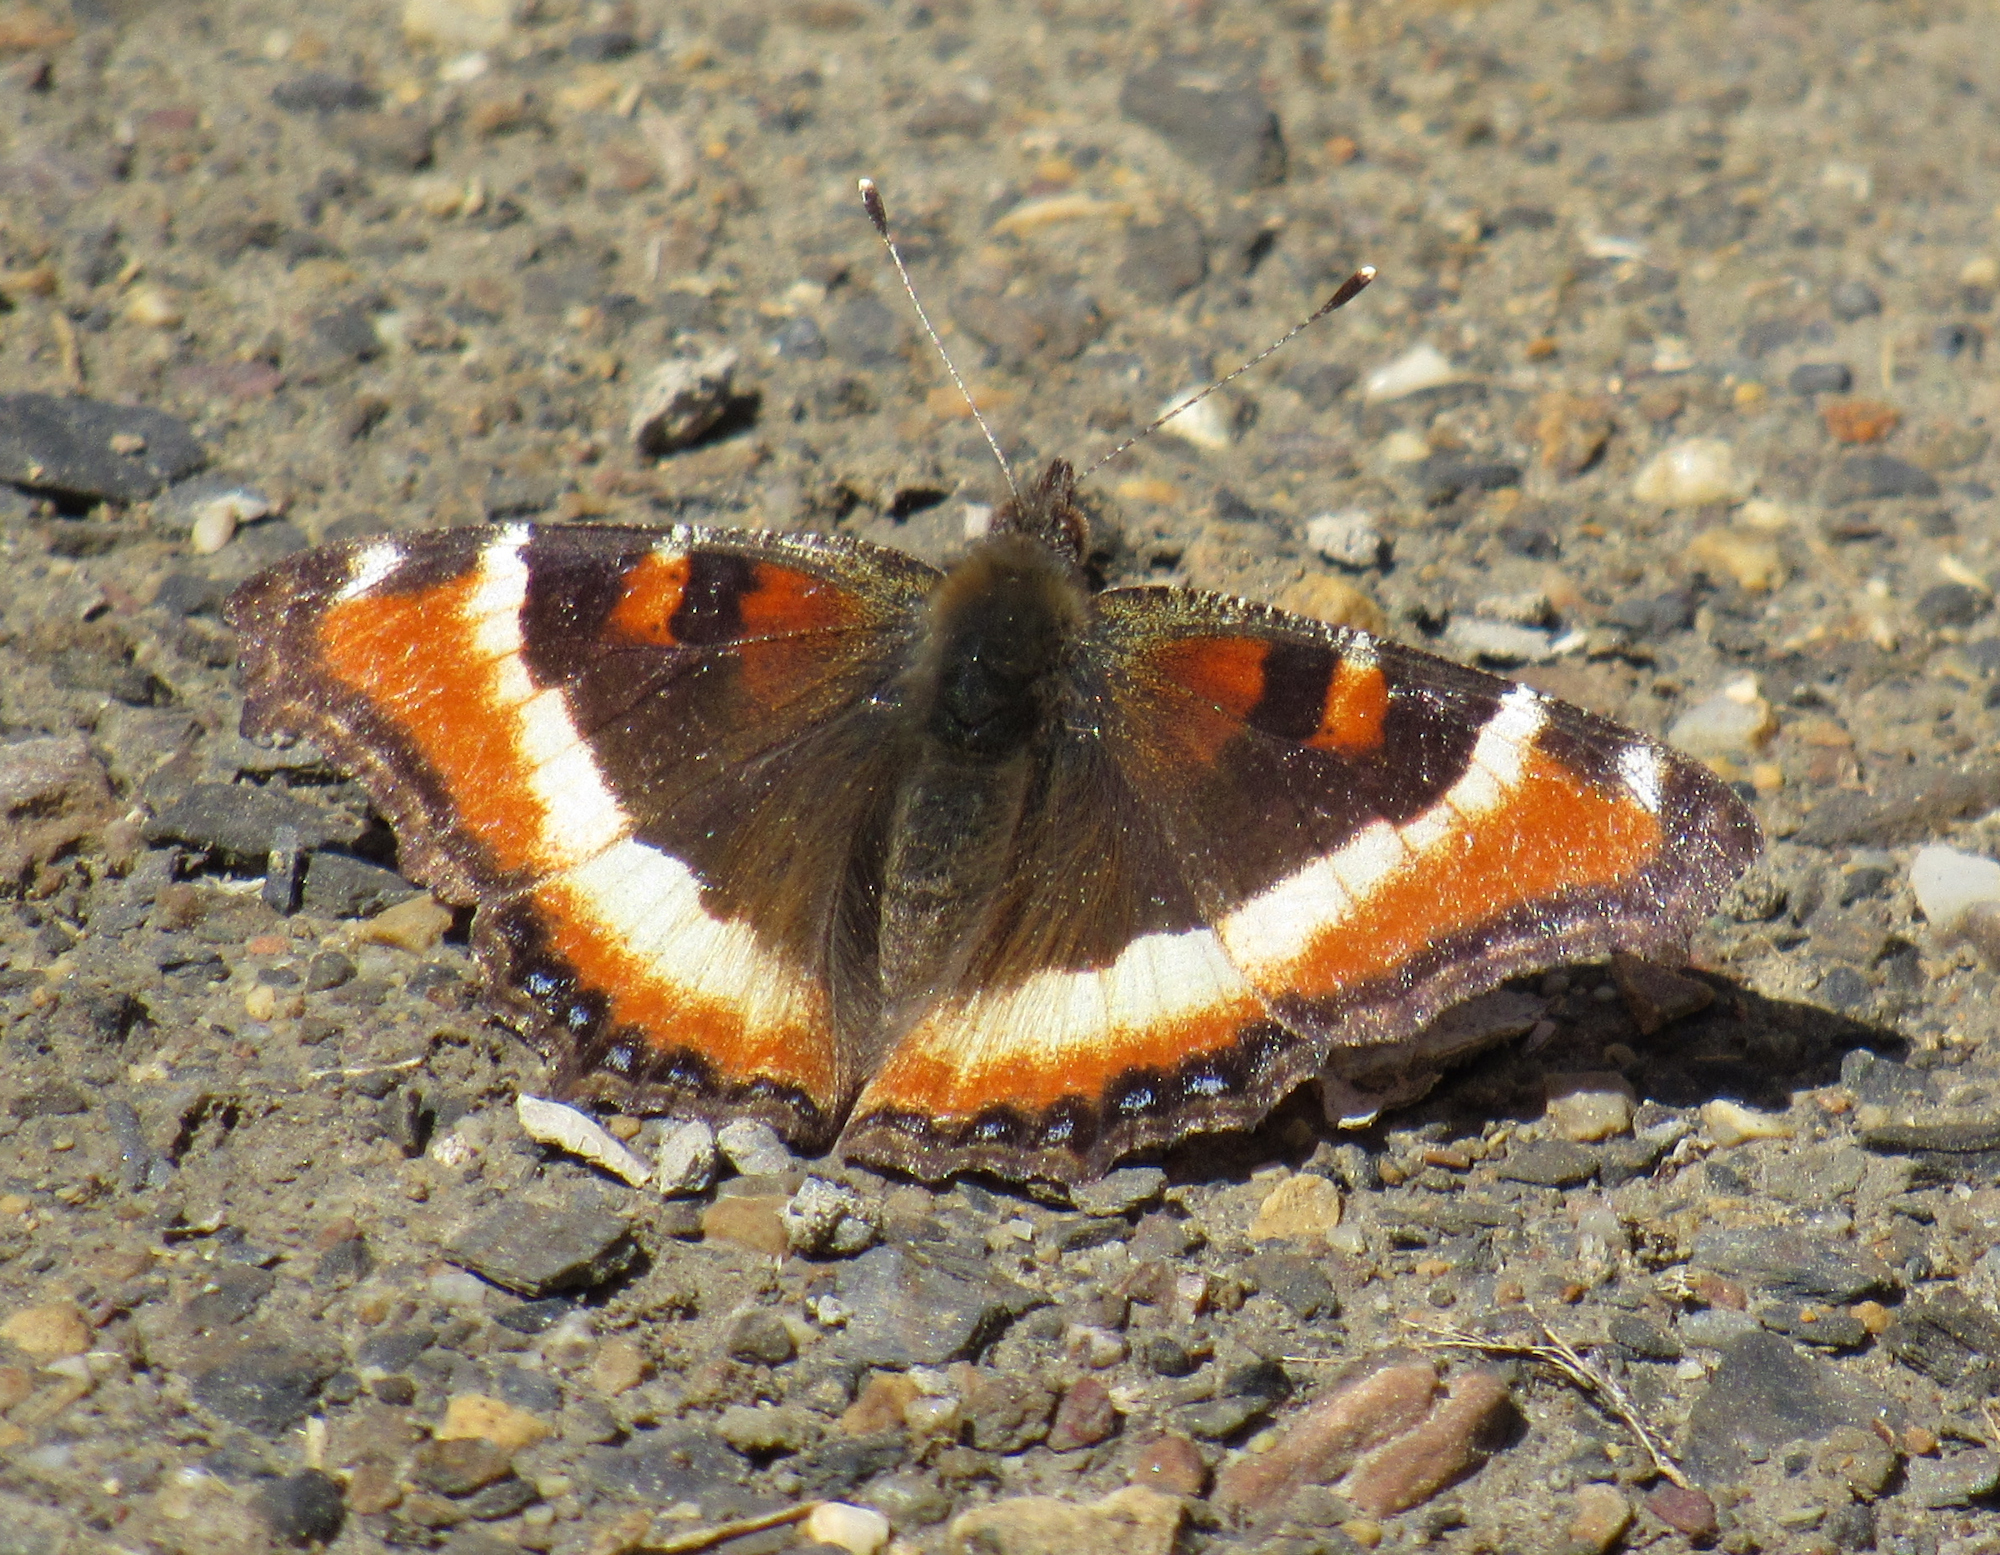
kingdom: Animalia
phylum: Arthropoda
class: Insecta
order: Lepidoptera
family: Nymphalidae
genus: Aglais
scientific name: Aglais milberti
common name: Milbert's tortoiseshell
